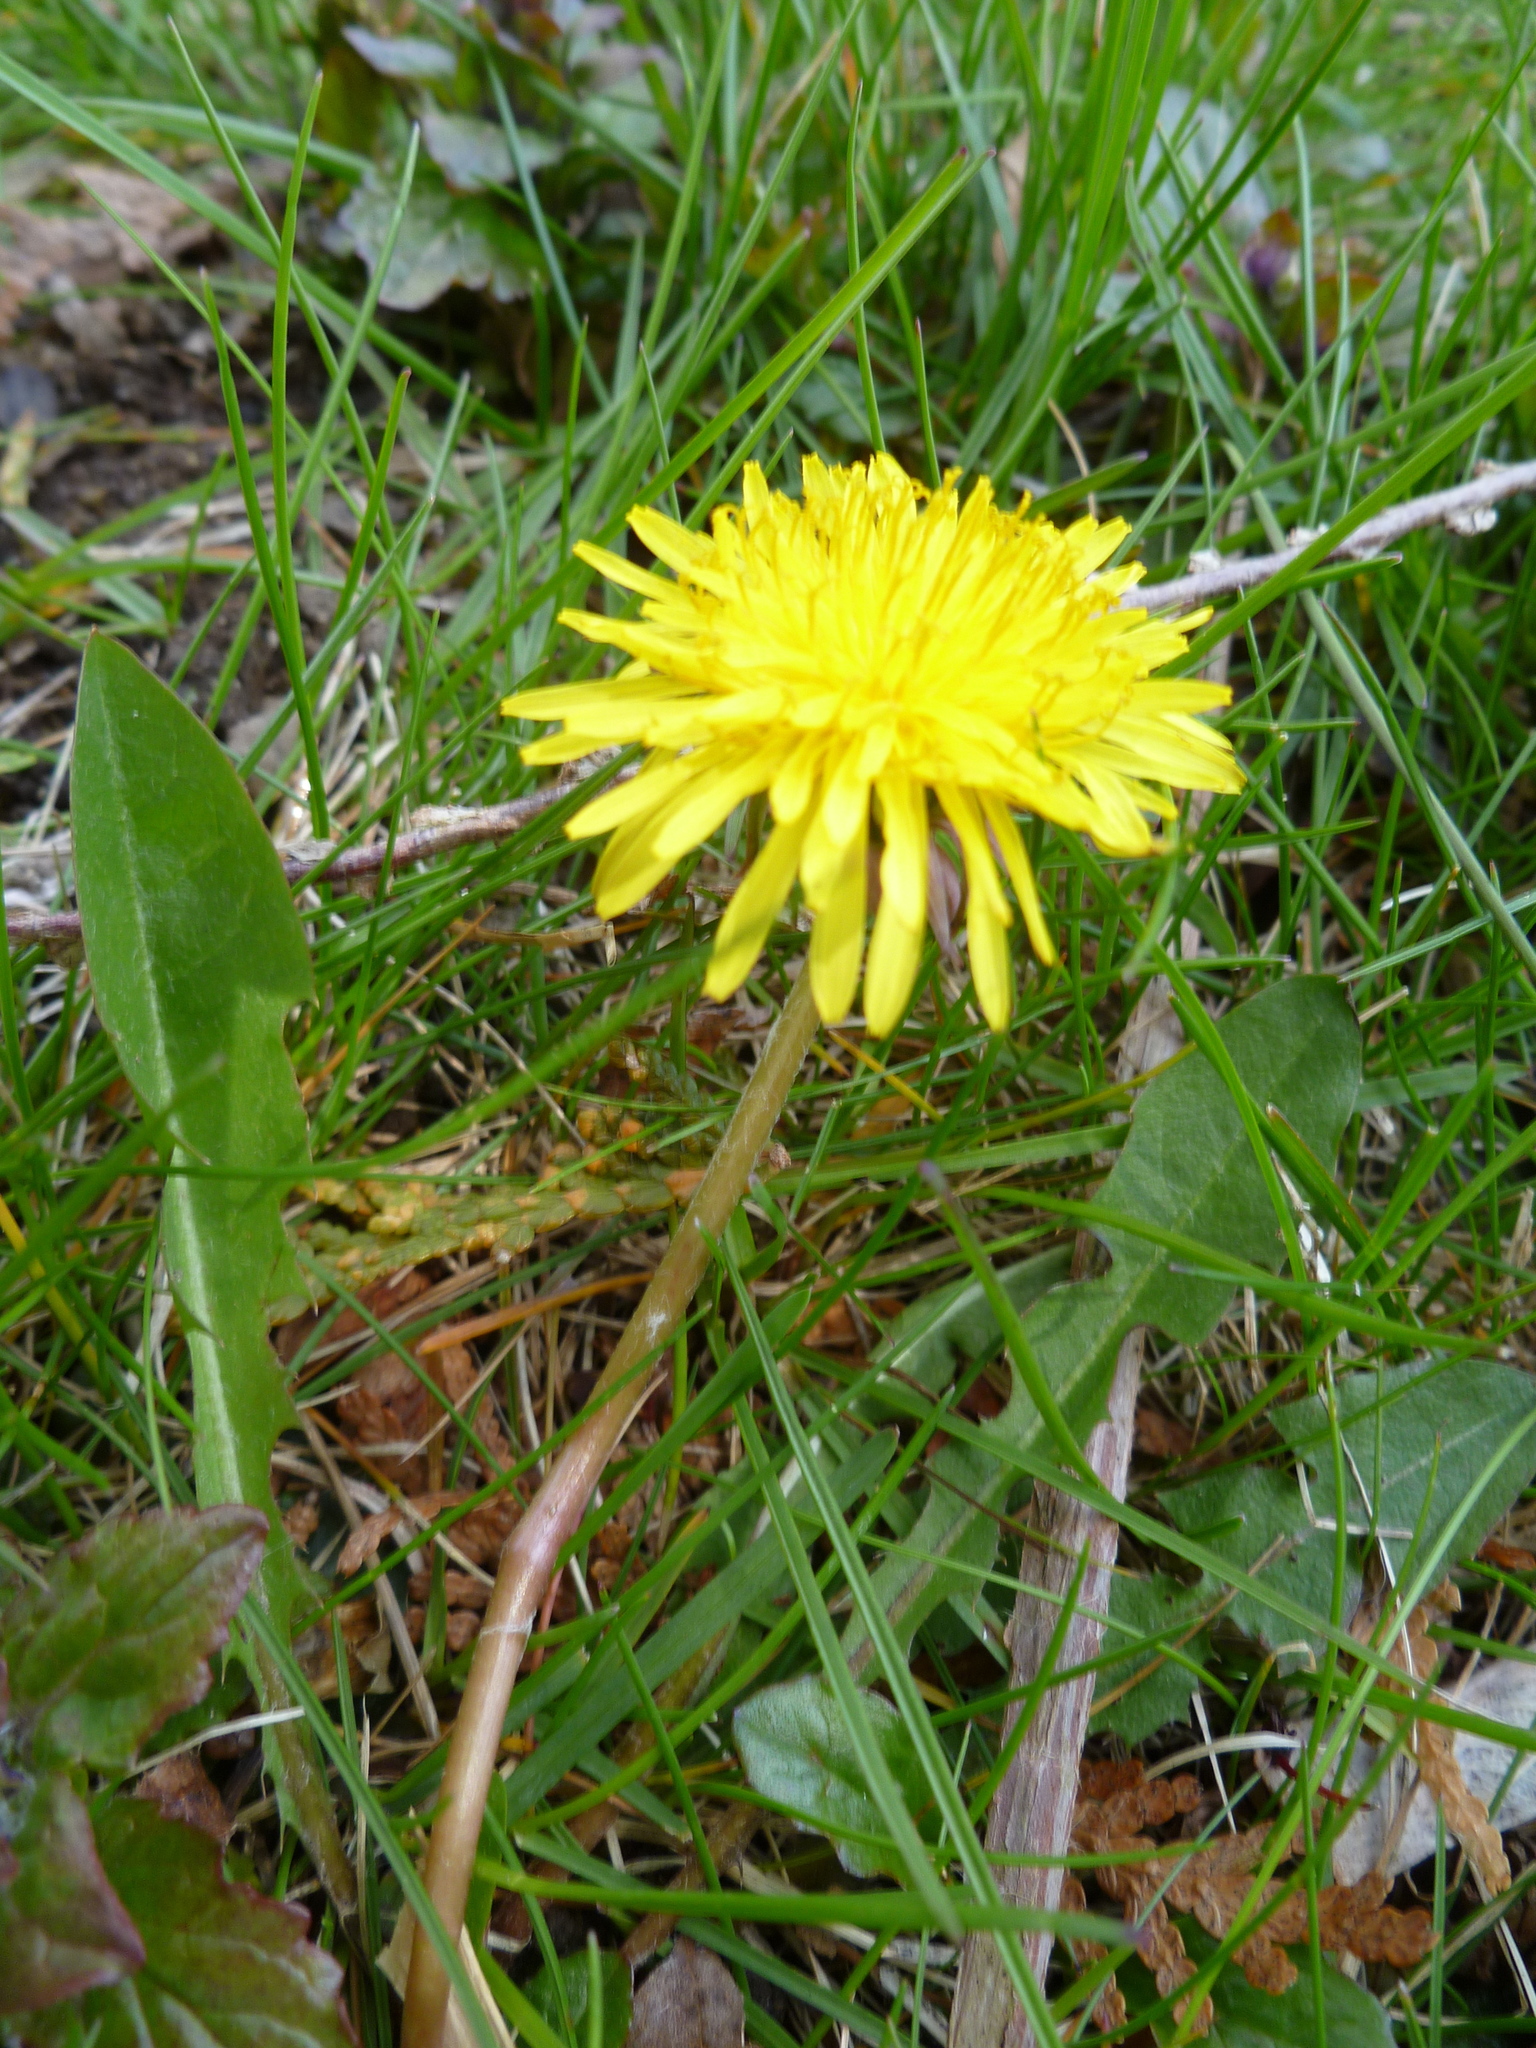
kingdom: Plantae
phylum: Tracheophyta
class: Magnoliopsida
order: Asterales
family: Asteraceae
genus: Taraxacum
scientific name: Taraxacum officinale
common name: Common dandelion
